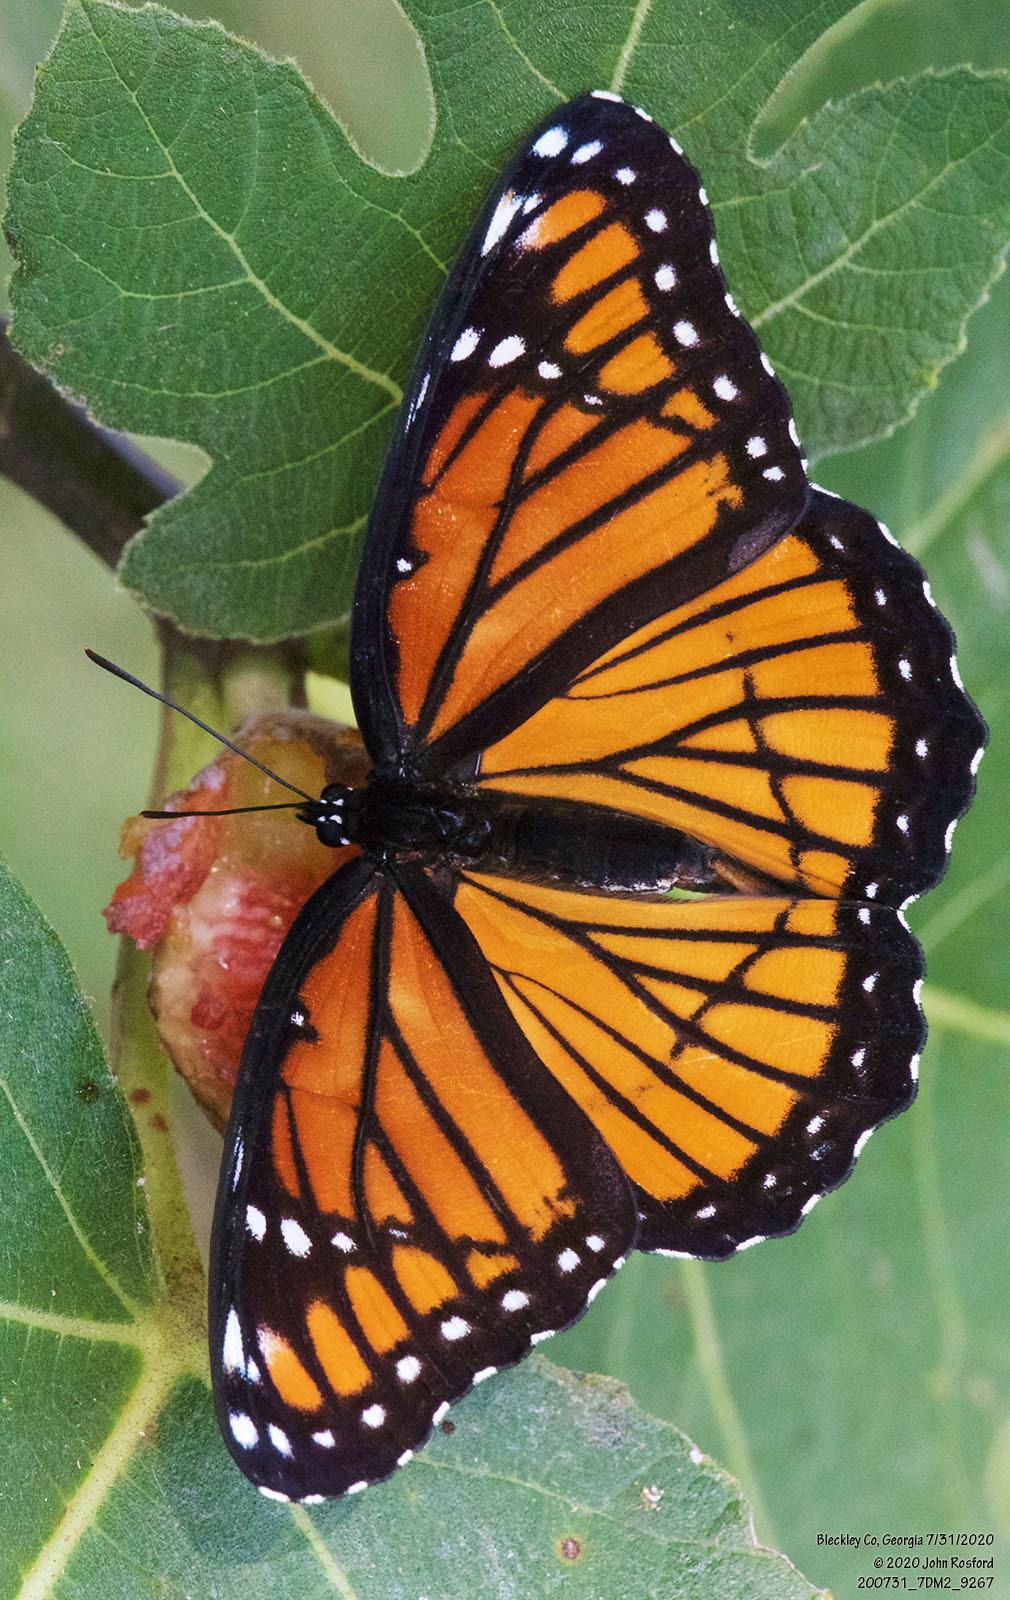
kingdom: Animalia
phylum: Arthropoda
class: Insecta
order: Lepidoptera
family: Nymphalidae
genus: Limenitis
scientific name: Limenitis archippus
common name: Viceroy
